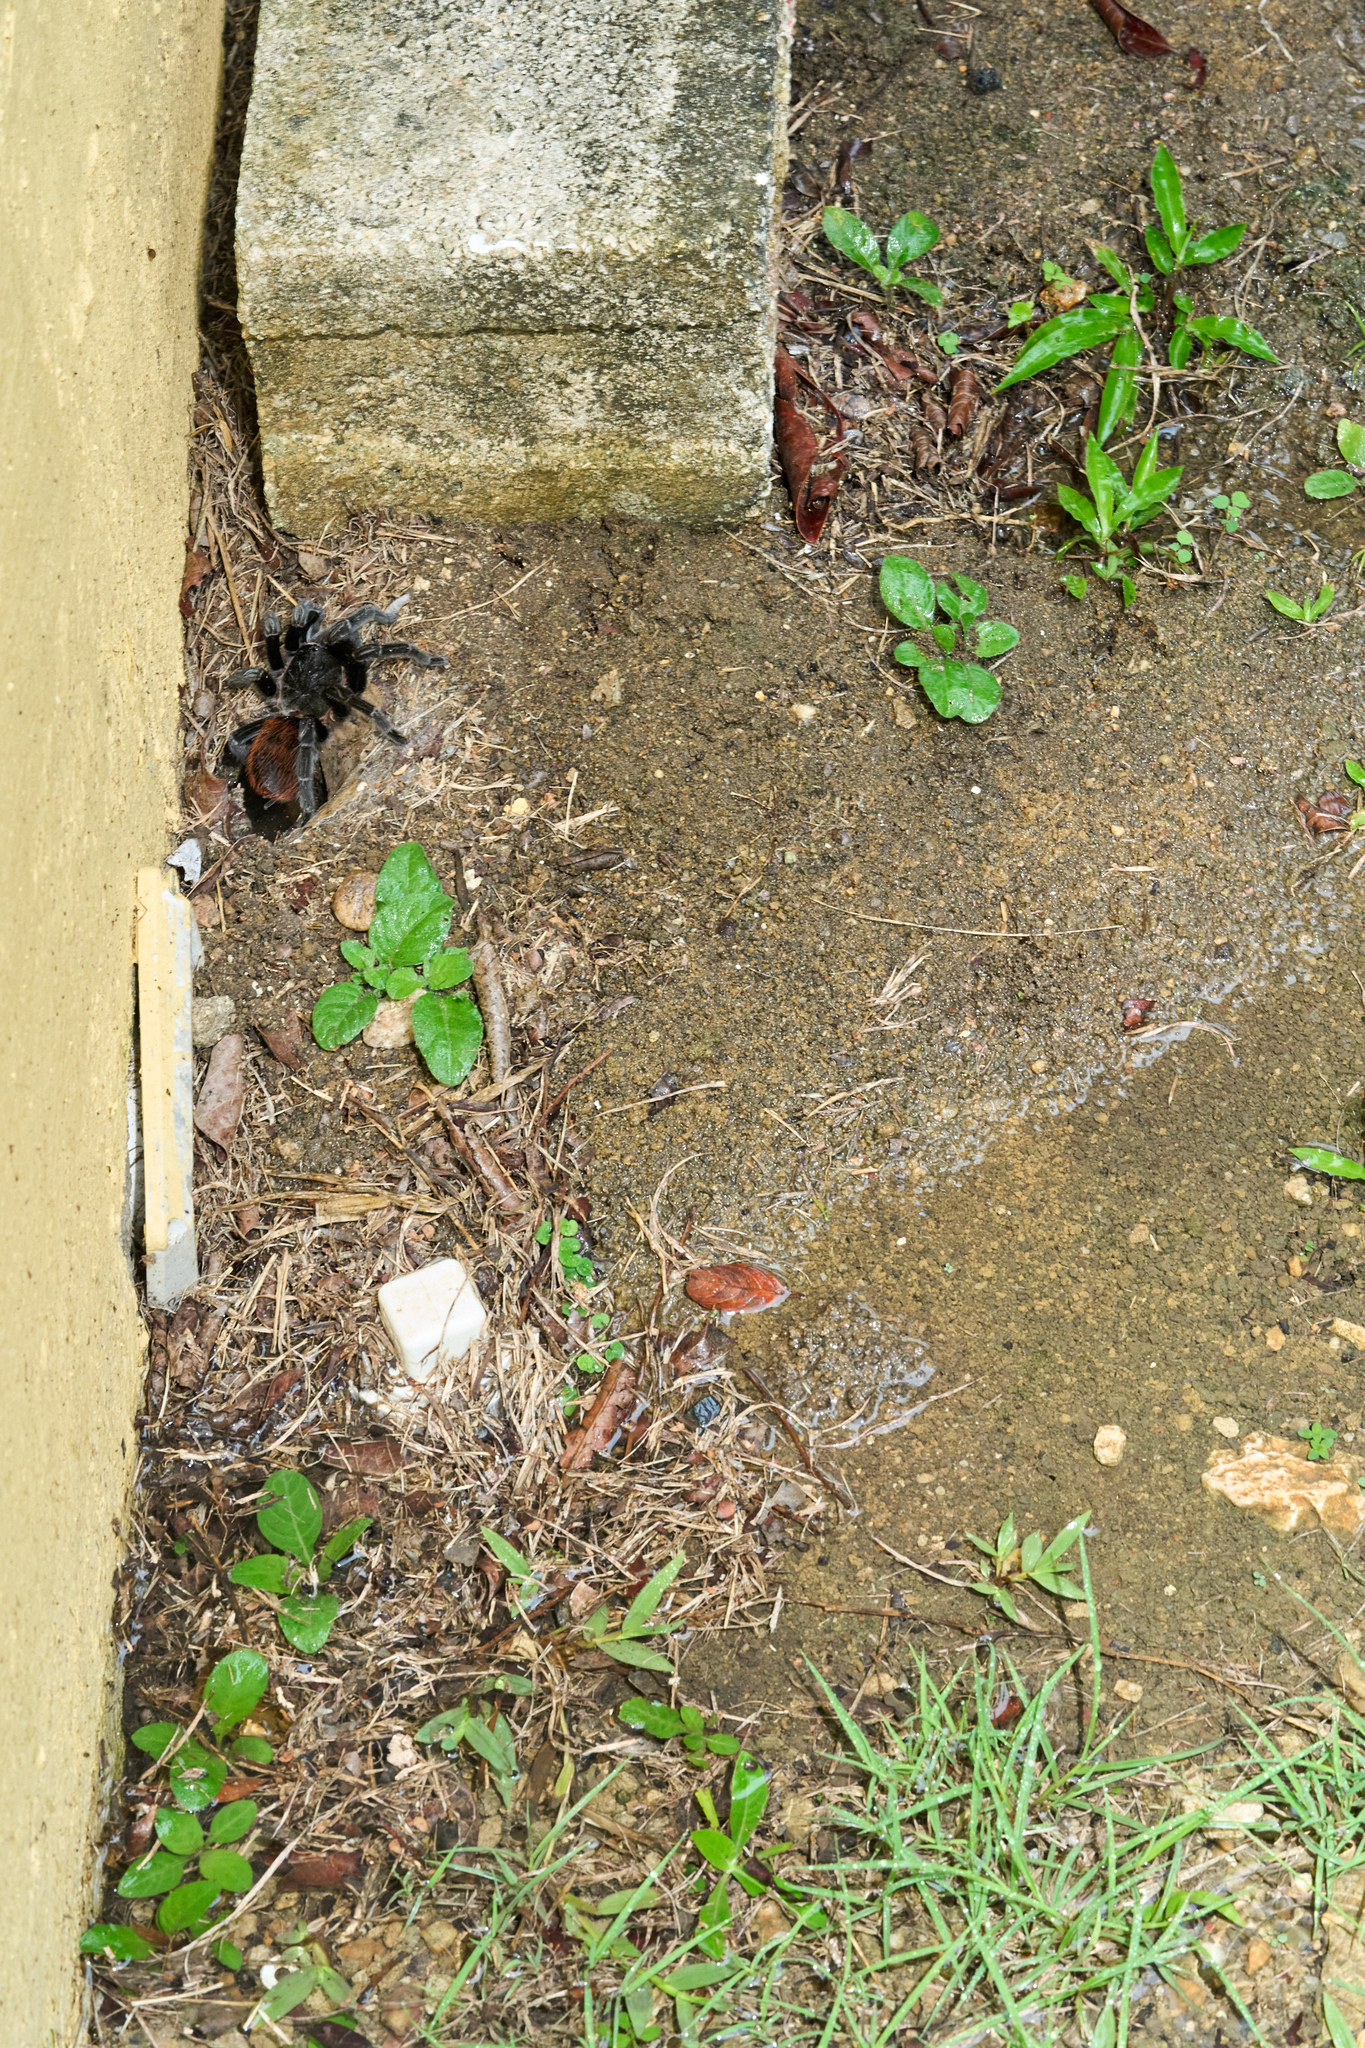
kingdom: Animalia
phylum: Arthropoda
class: Arachnida
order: Araneae
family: Theraphosidae
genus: Tliltocatl
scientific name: Tliltocatl vagans
